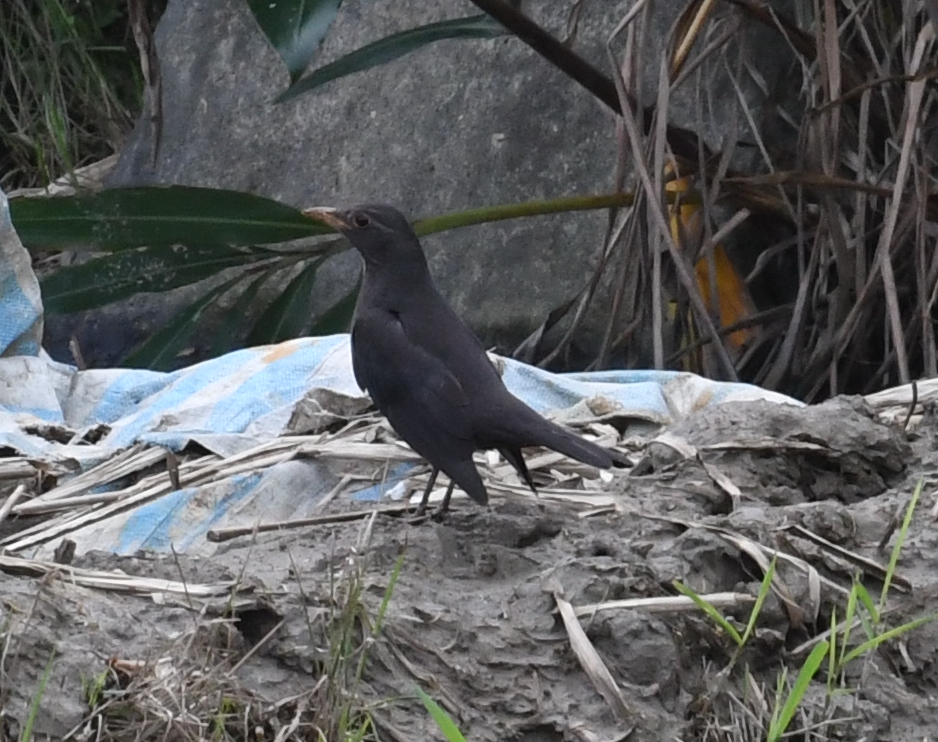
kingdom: Animalia
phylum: Chordata
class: Aves
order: Passeriformes
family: Turdidae
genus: Turdus
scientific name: Turdus mandarinus
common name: Chinese blackbird
